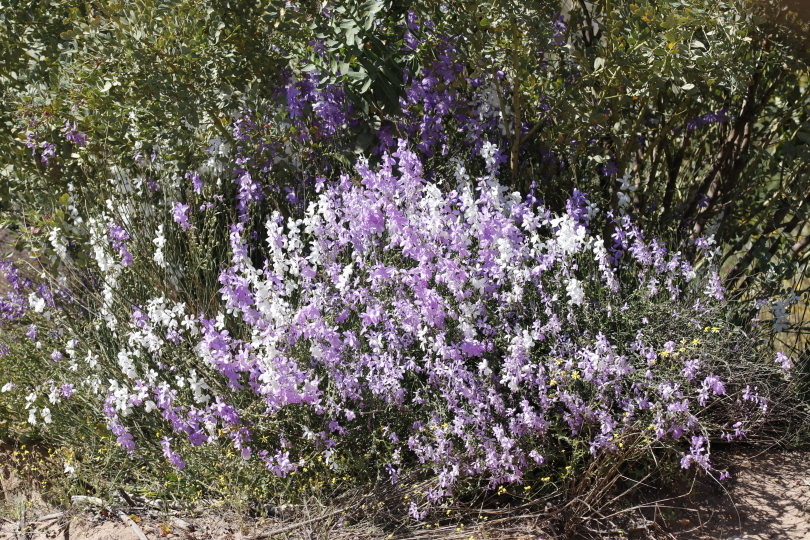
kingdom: Plantae
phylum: Tracheophyta
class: Magnoliopsida
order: Brassicales
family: Brassicaceae
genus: Heliophila
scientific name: Heliophila juncea
